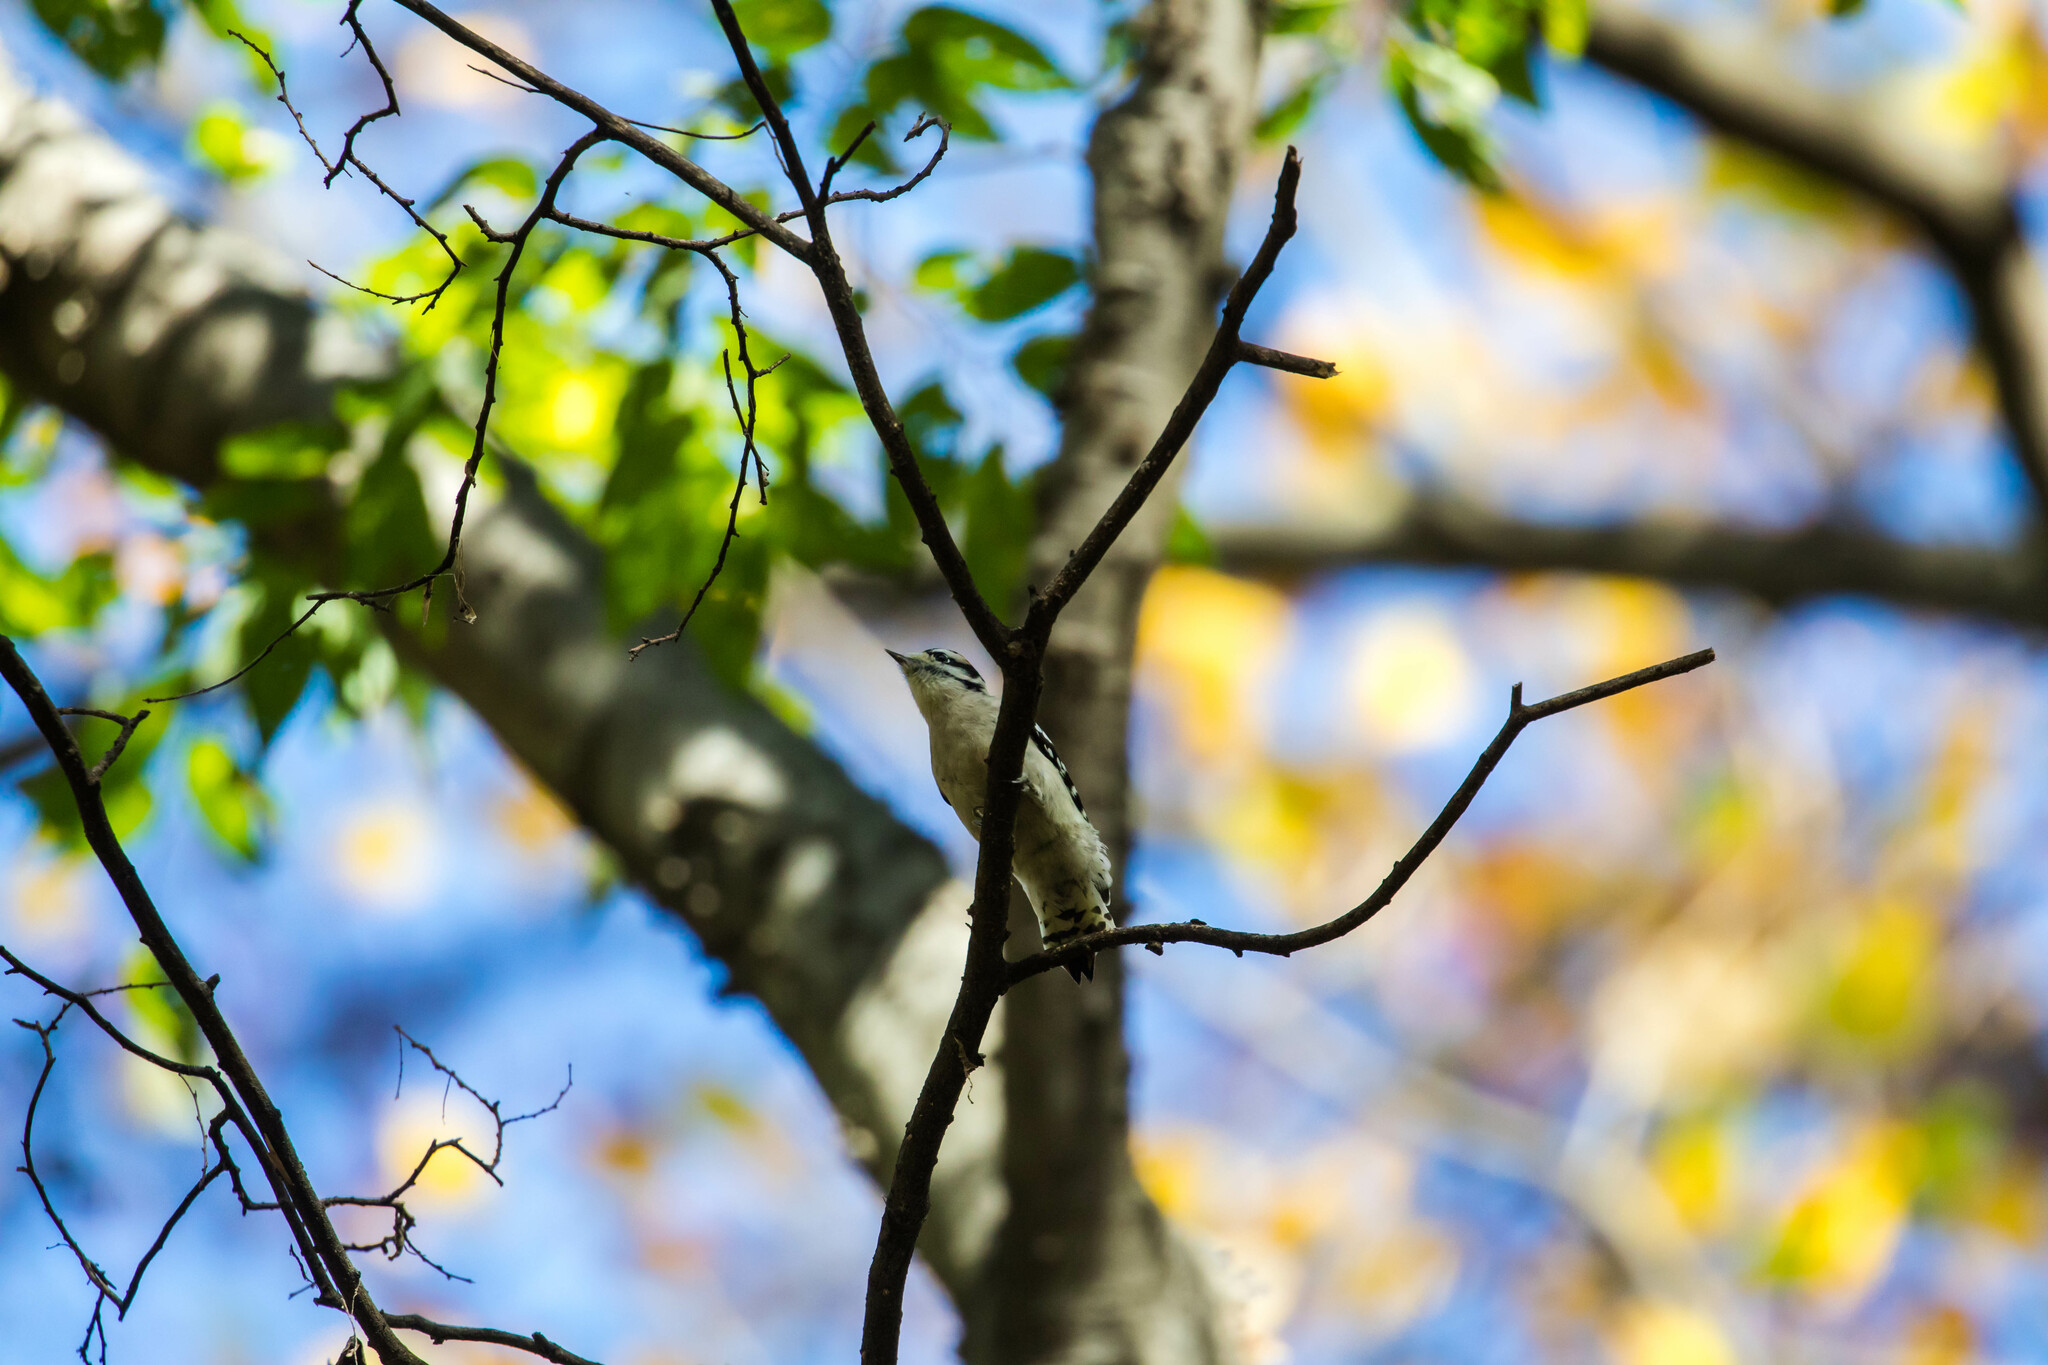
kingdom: Animalia
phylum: Chordata
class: Aves
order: Piciformes
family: Picidae
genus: Dryobates
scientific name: Dryobates pubescens
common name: Downy woodpecker
